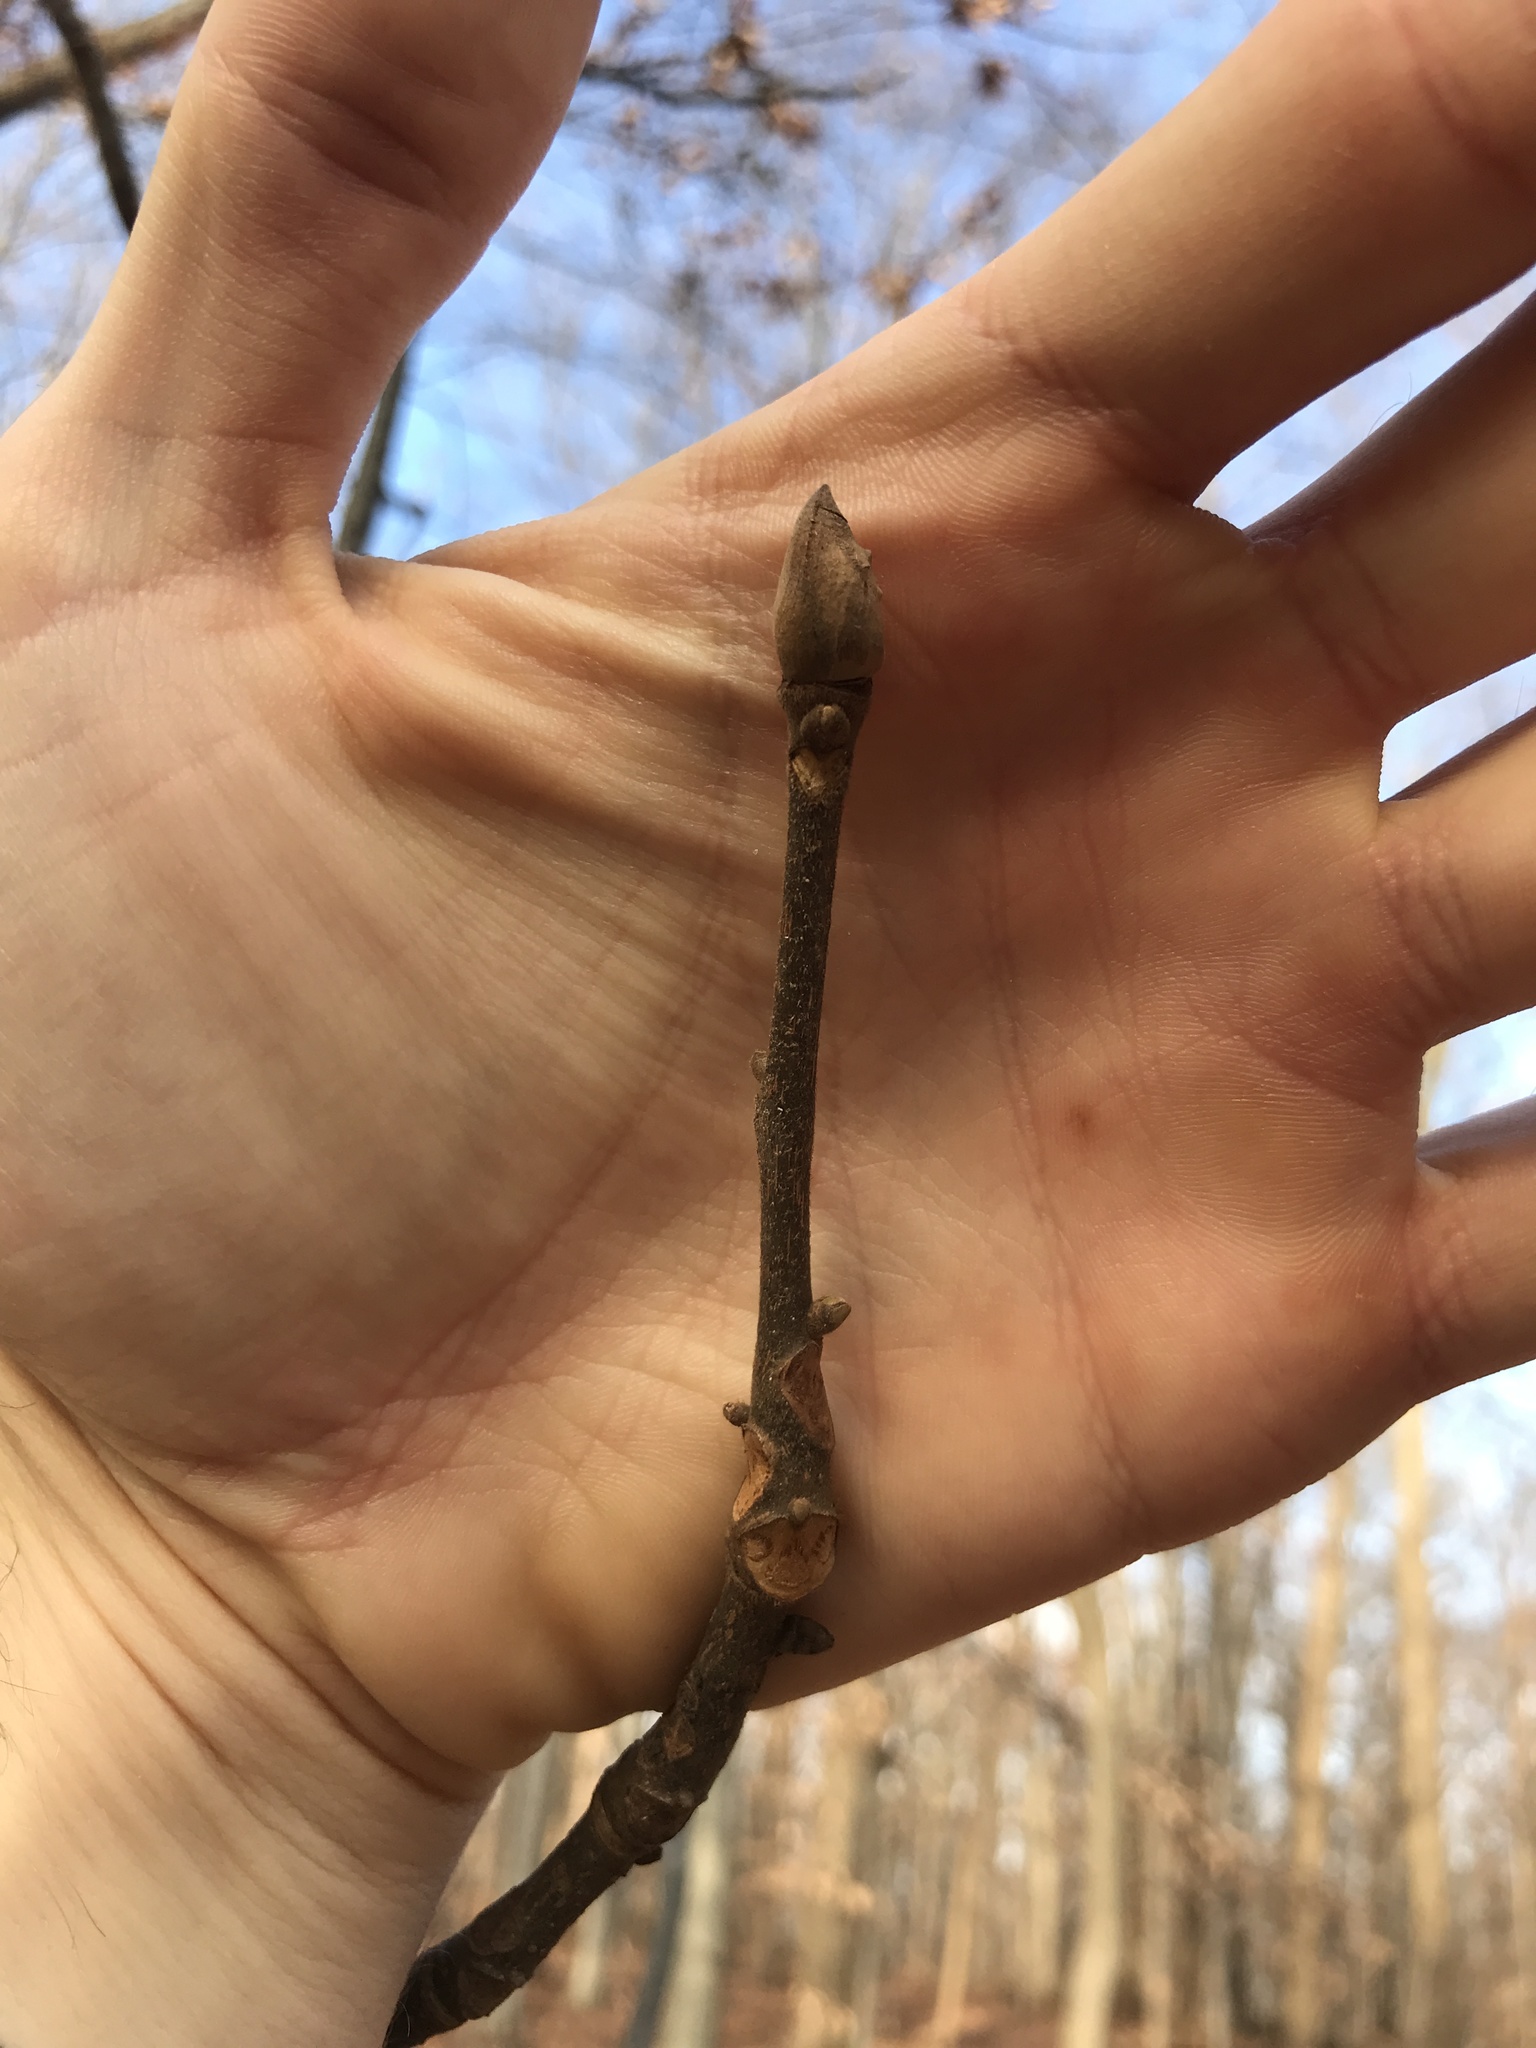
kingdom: Plantae
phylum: Tracheophyta
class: Magnoliopsida
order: Fagales
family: Juglandaceae
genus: Carya
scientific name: Carya alba
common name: Mockernut hickory
